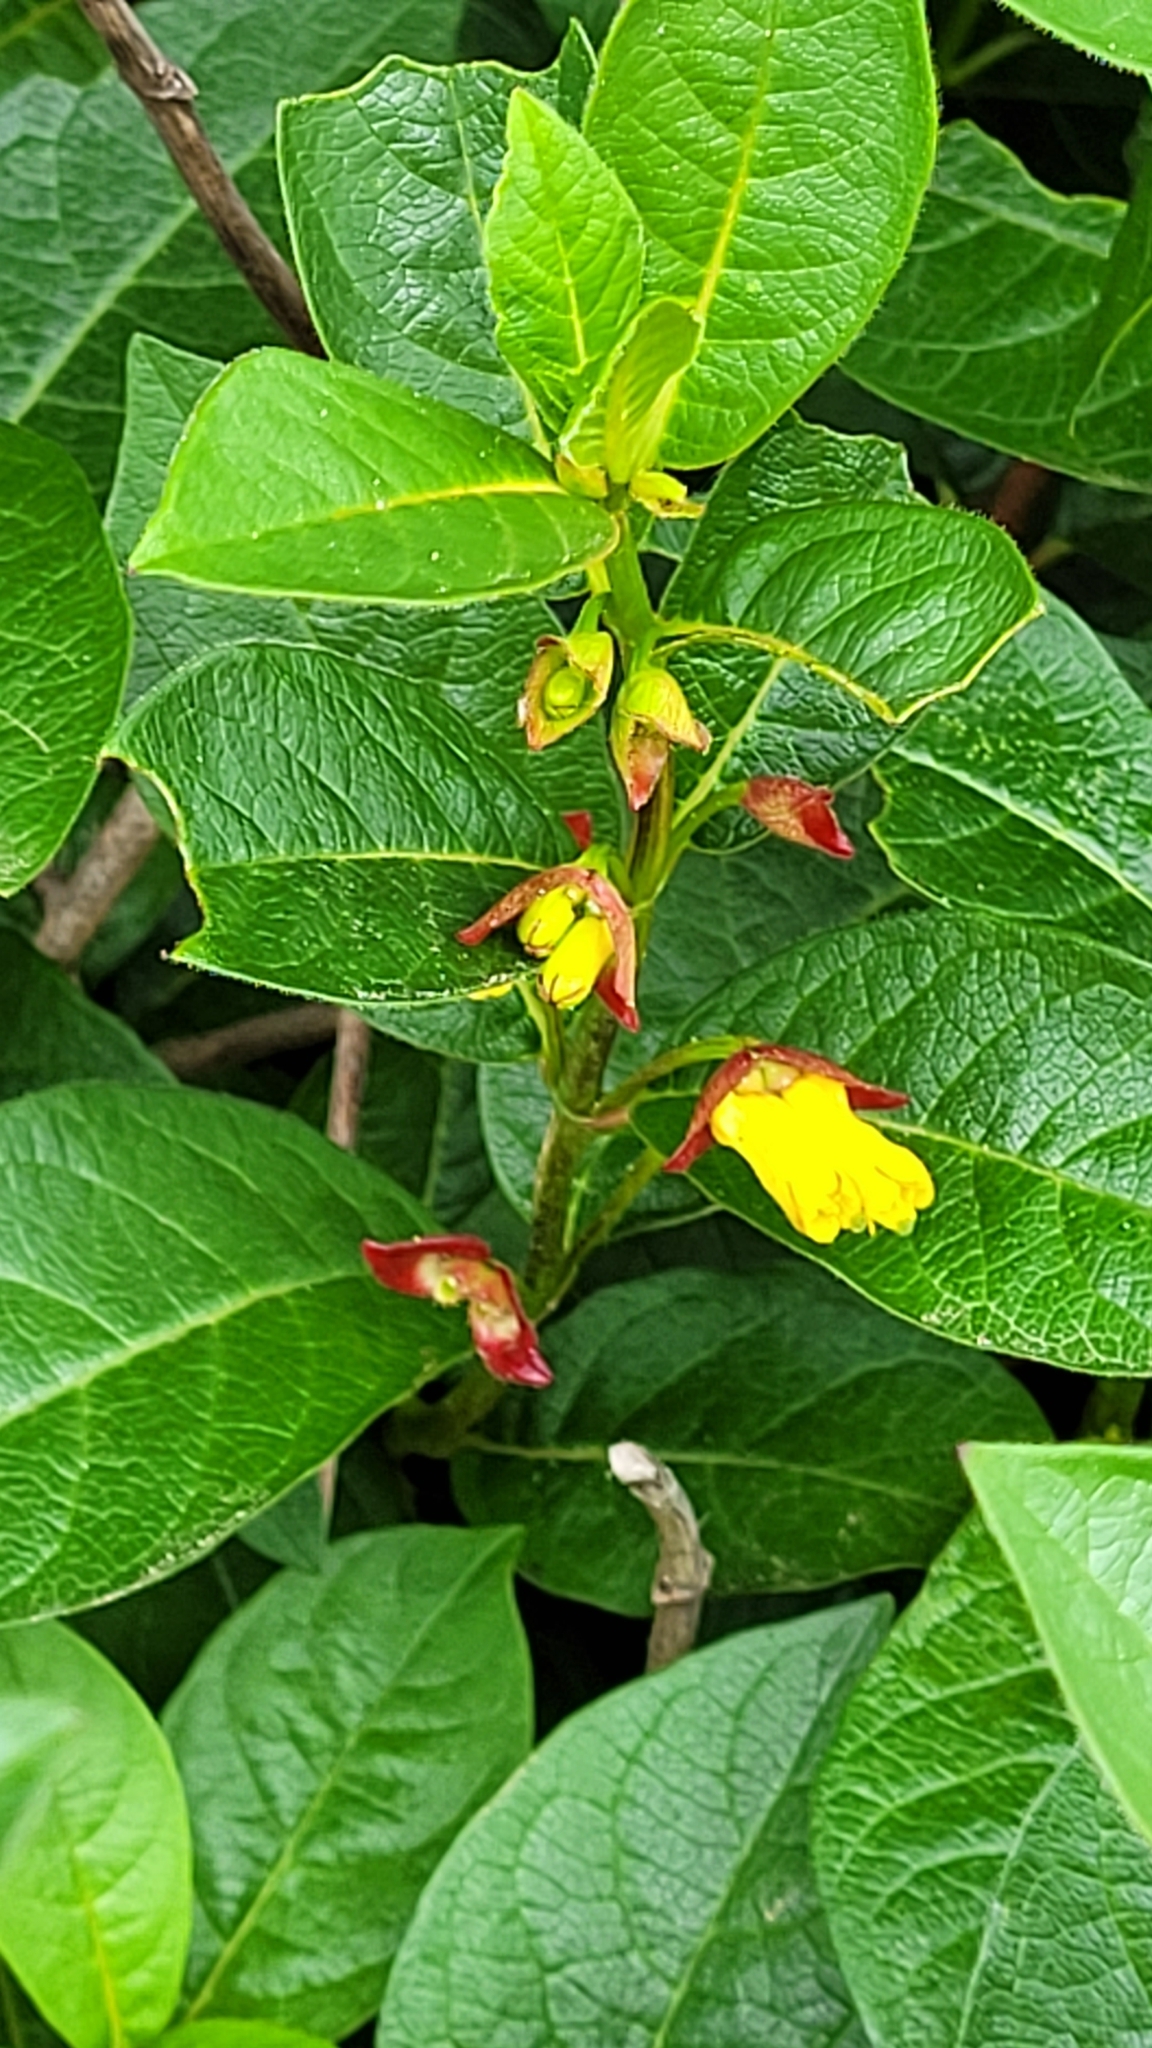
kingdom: Plantae
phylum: Tracheophyta
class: Magnoliopsida
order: Dipsacales
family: Caprifoliaceae
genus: Lonicera
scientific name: Lonicera involucrata
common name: Californian honeysuckle
